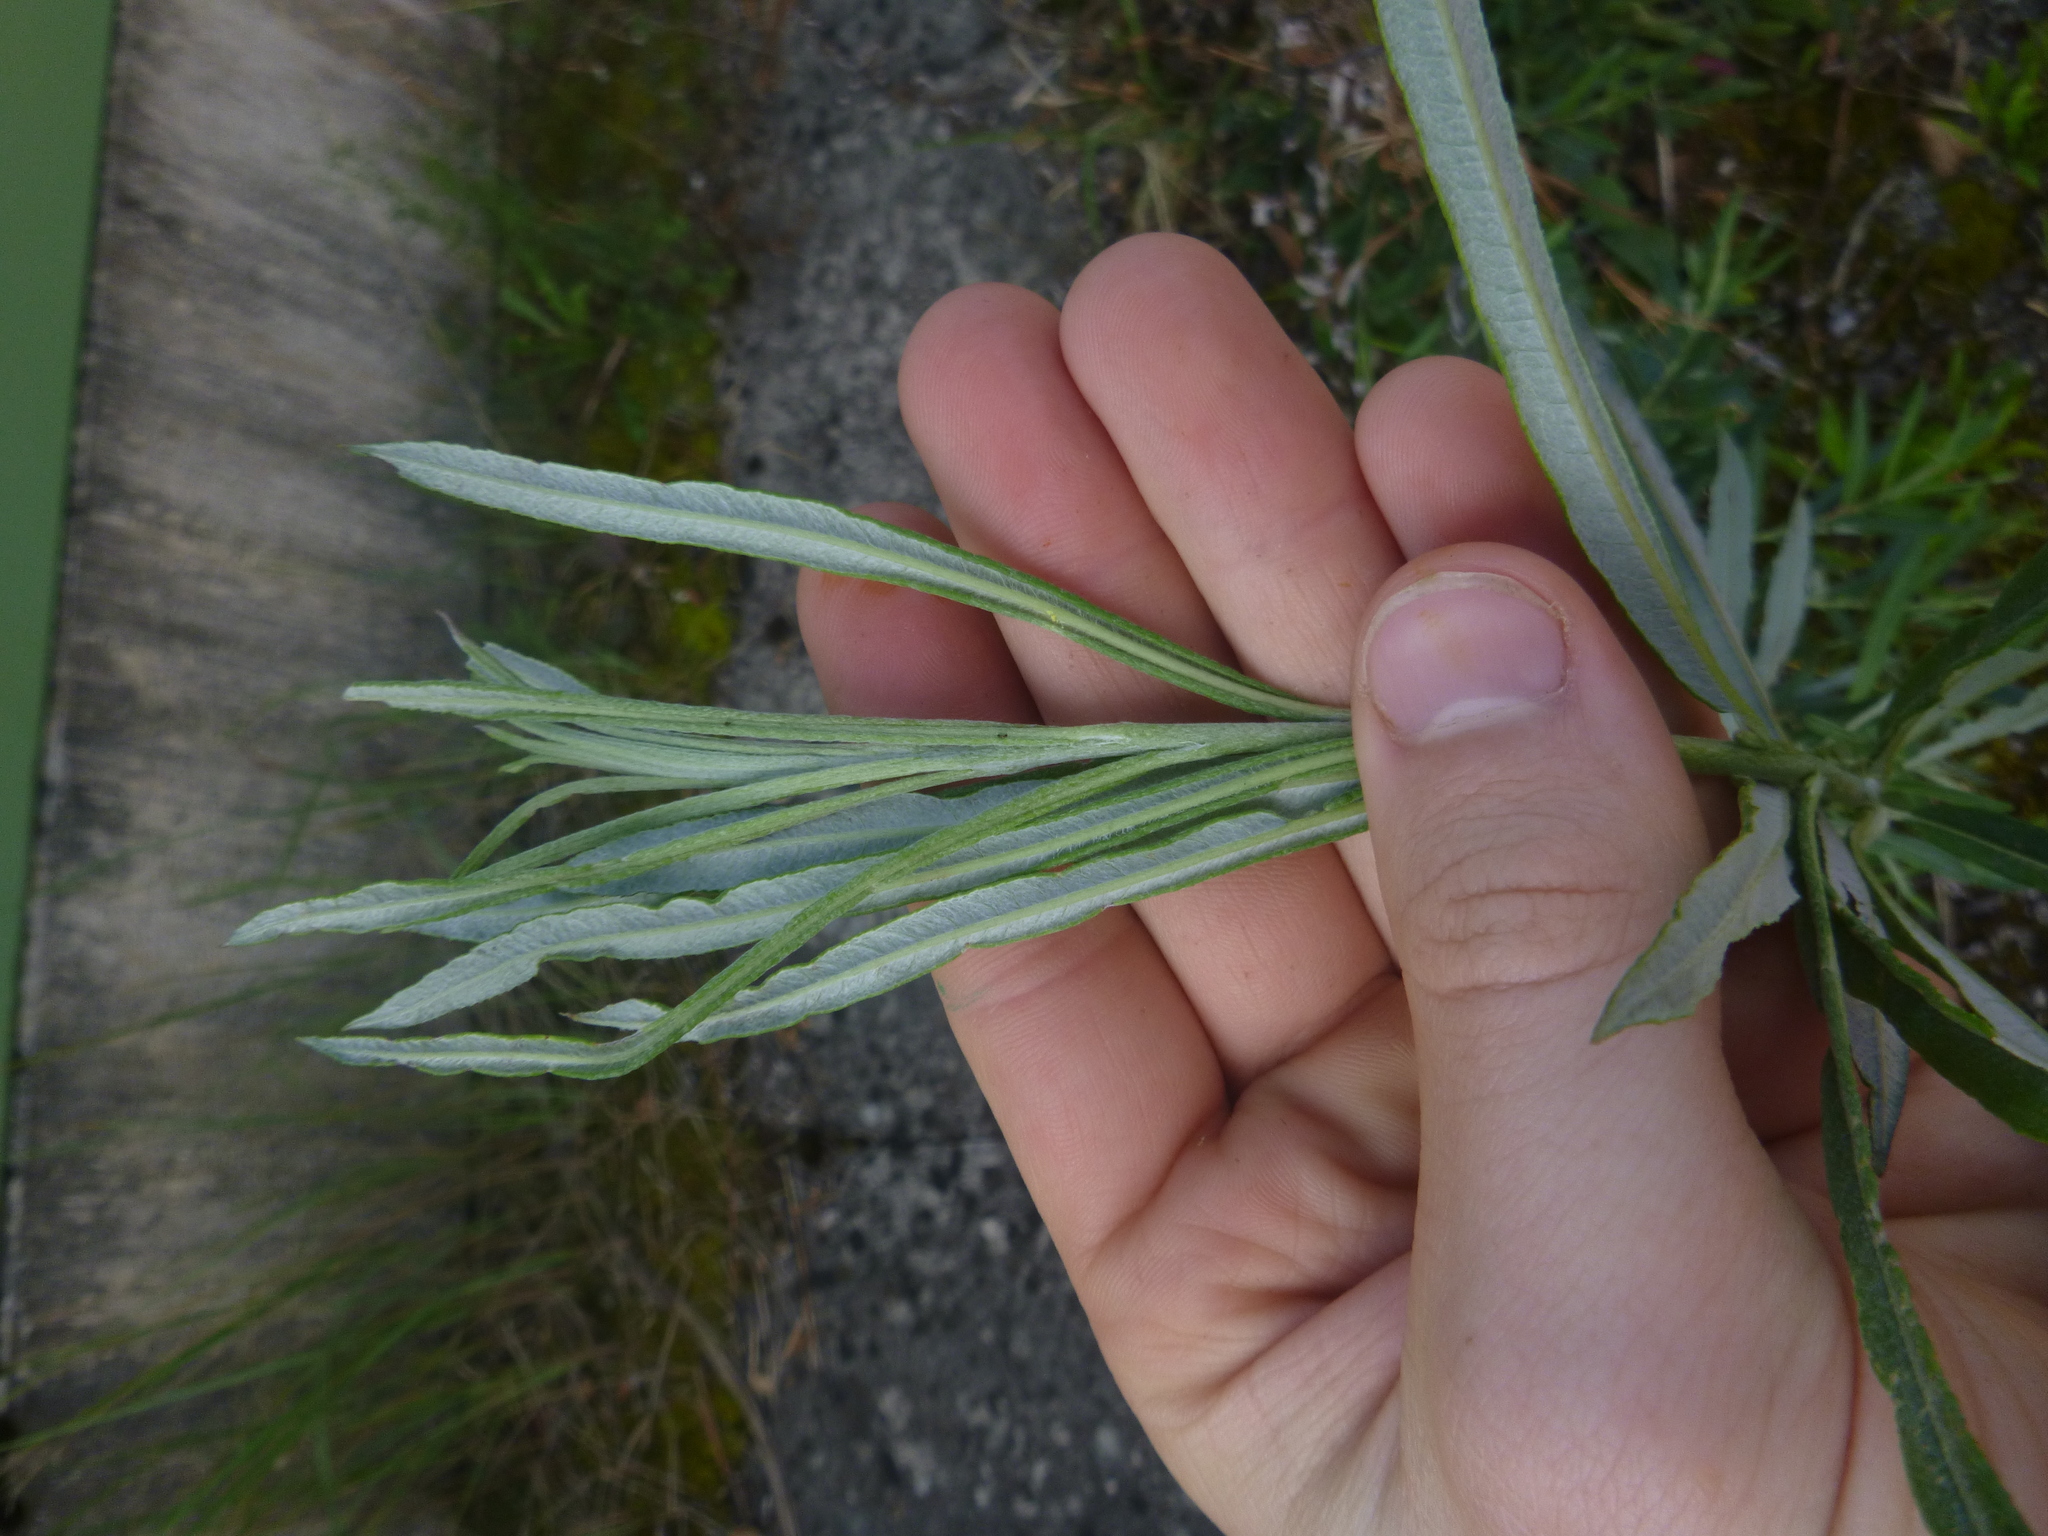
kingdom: Plantae
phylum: Tracheophyta
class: Magnoliopsida
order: Malpighiales
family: Salicaceae
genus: Salix
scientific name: Salix eleagnos
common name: Elaeagnus willow
